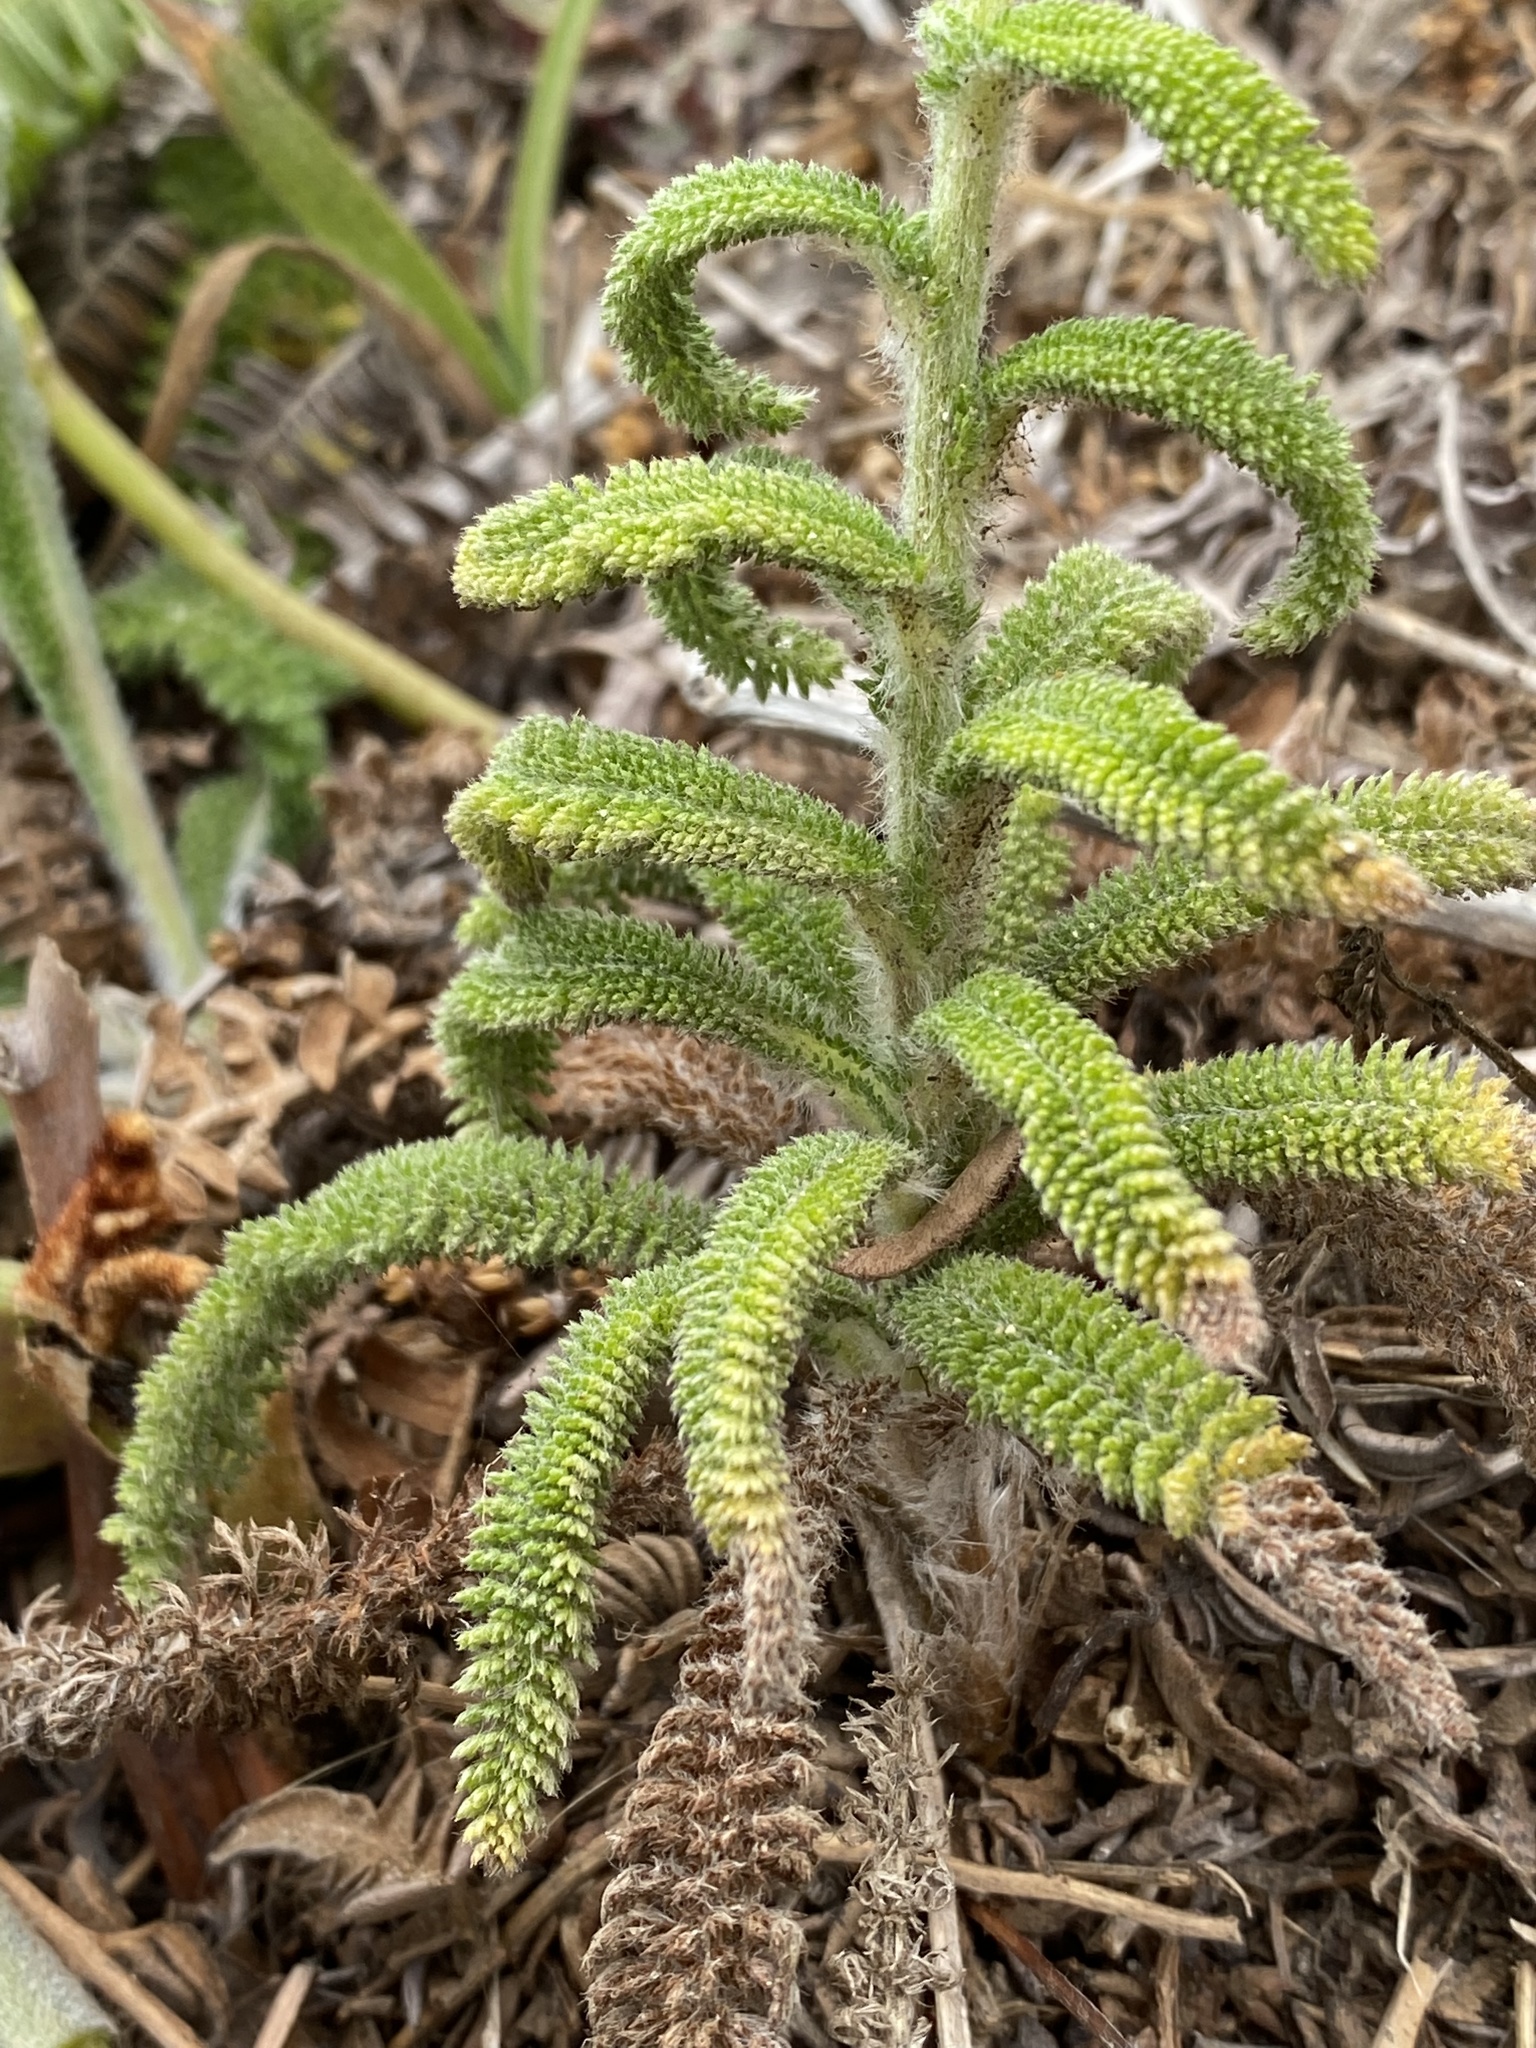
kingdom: Plantae
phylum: Tracheophyta
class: Magnoliopsida
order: Asterales
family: Asteraceae
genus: Achillea
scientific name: Achillea millefolium
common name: Yarrow
